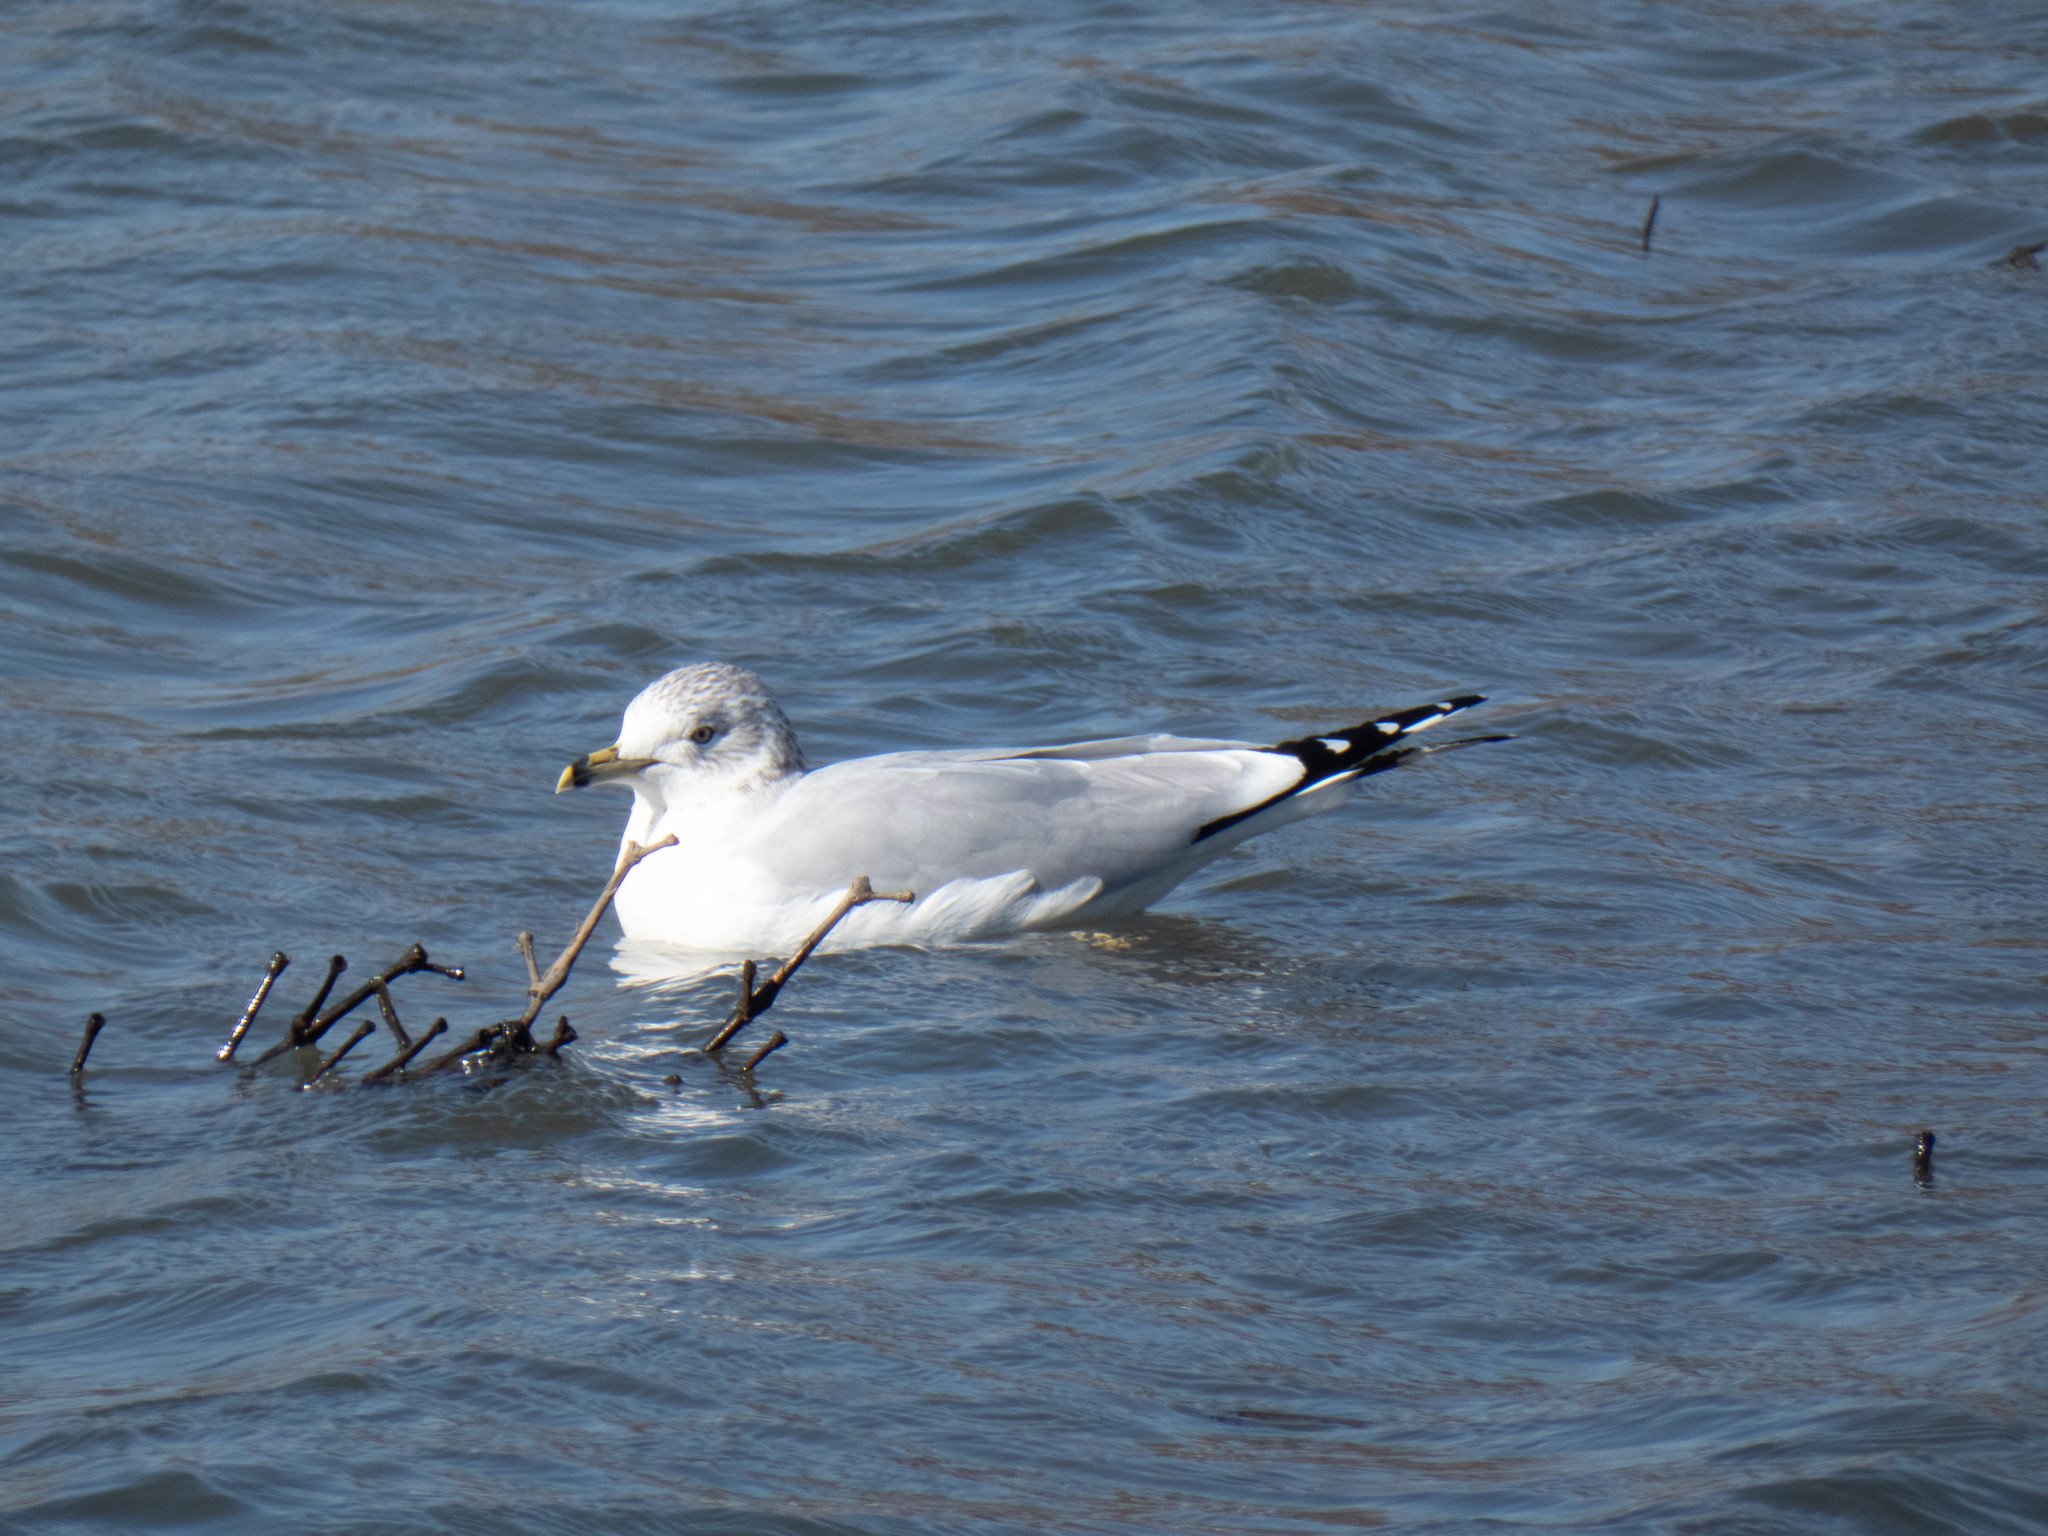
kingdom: Animalia
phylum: Chordata
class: Aves
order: Charadriiformes
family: Laridae
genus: Larus
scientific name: Larus delawarensis
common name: Ring-billed gull
